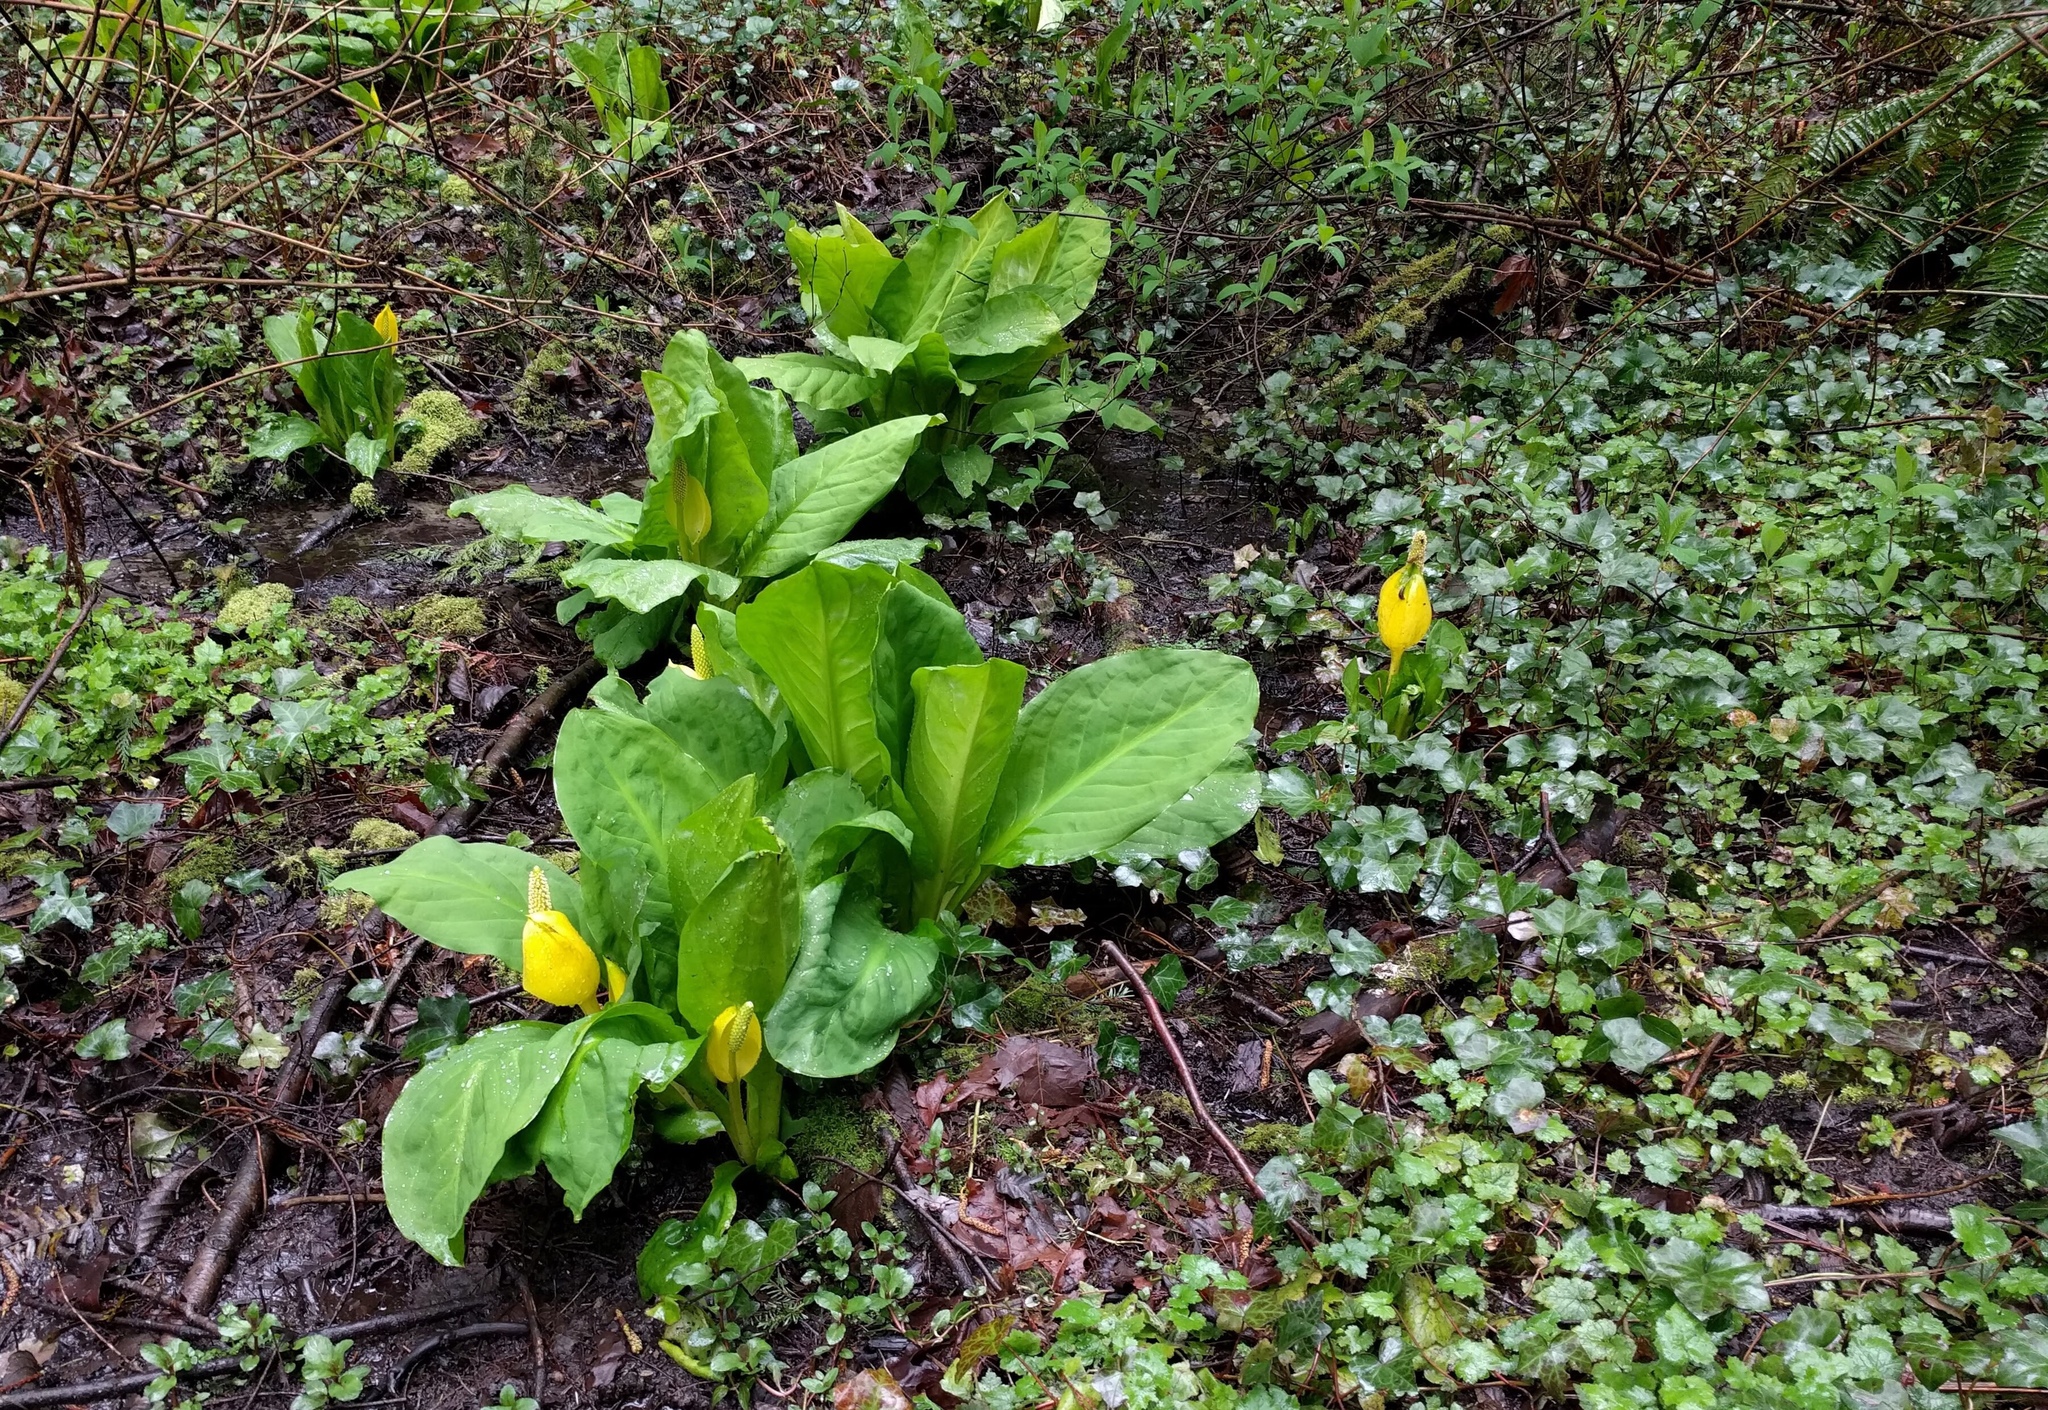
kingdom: Plantae
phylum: Tracheophyta
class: Liliopsida
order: Alismatales
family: Araceae
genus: Lysichiton
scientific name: Lysichiton americanus
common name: American skunk cabbage
